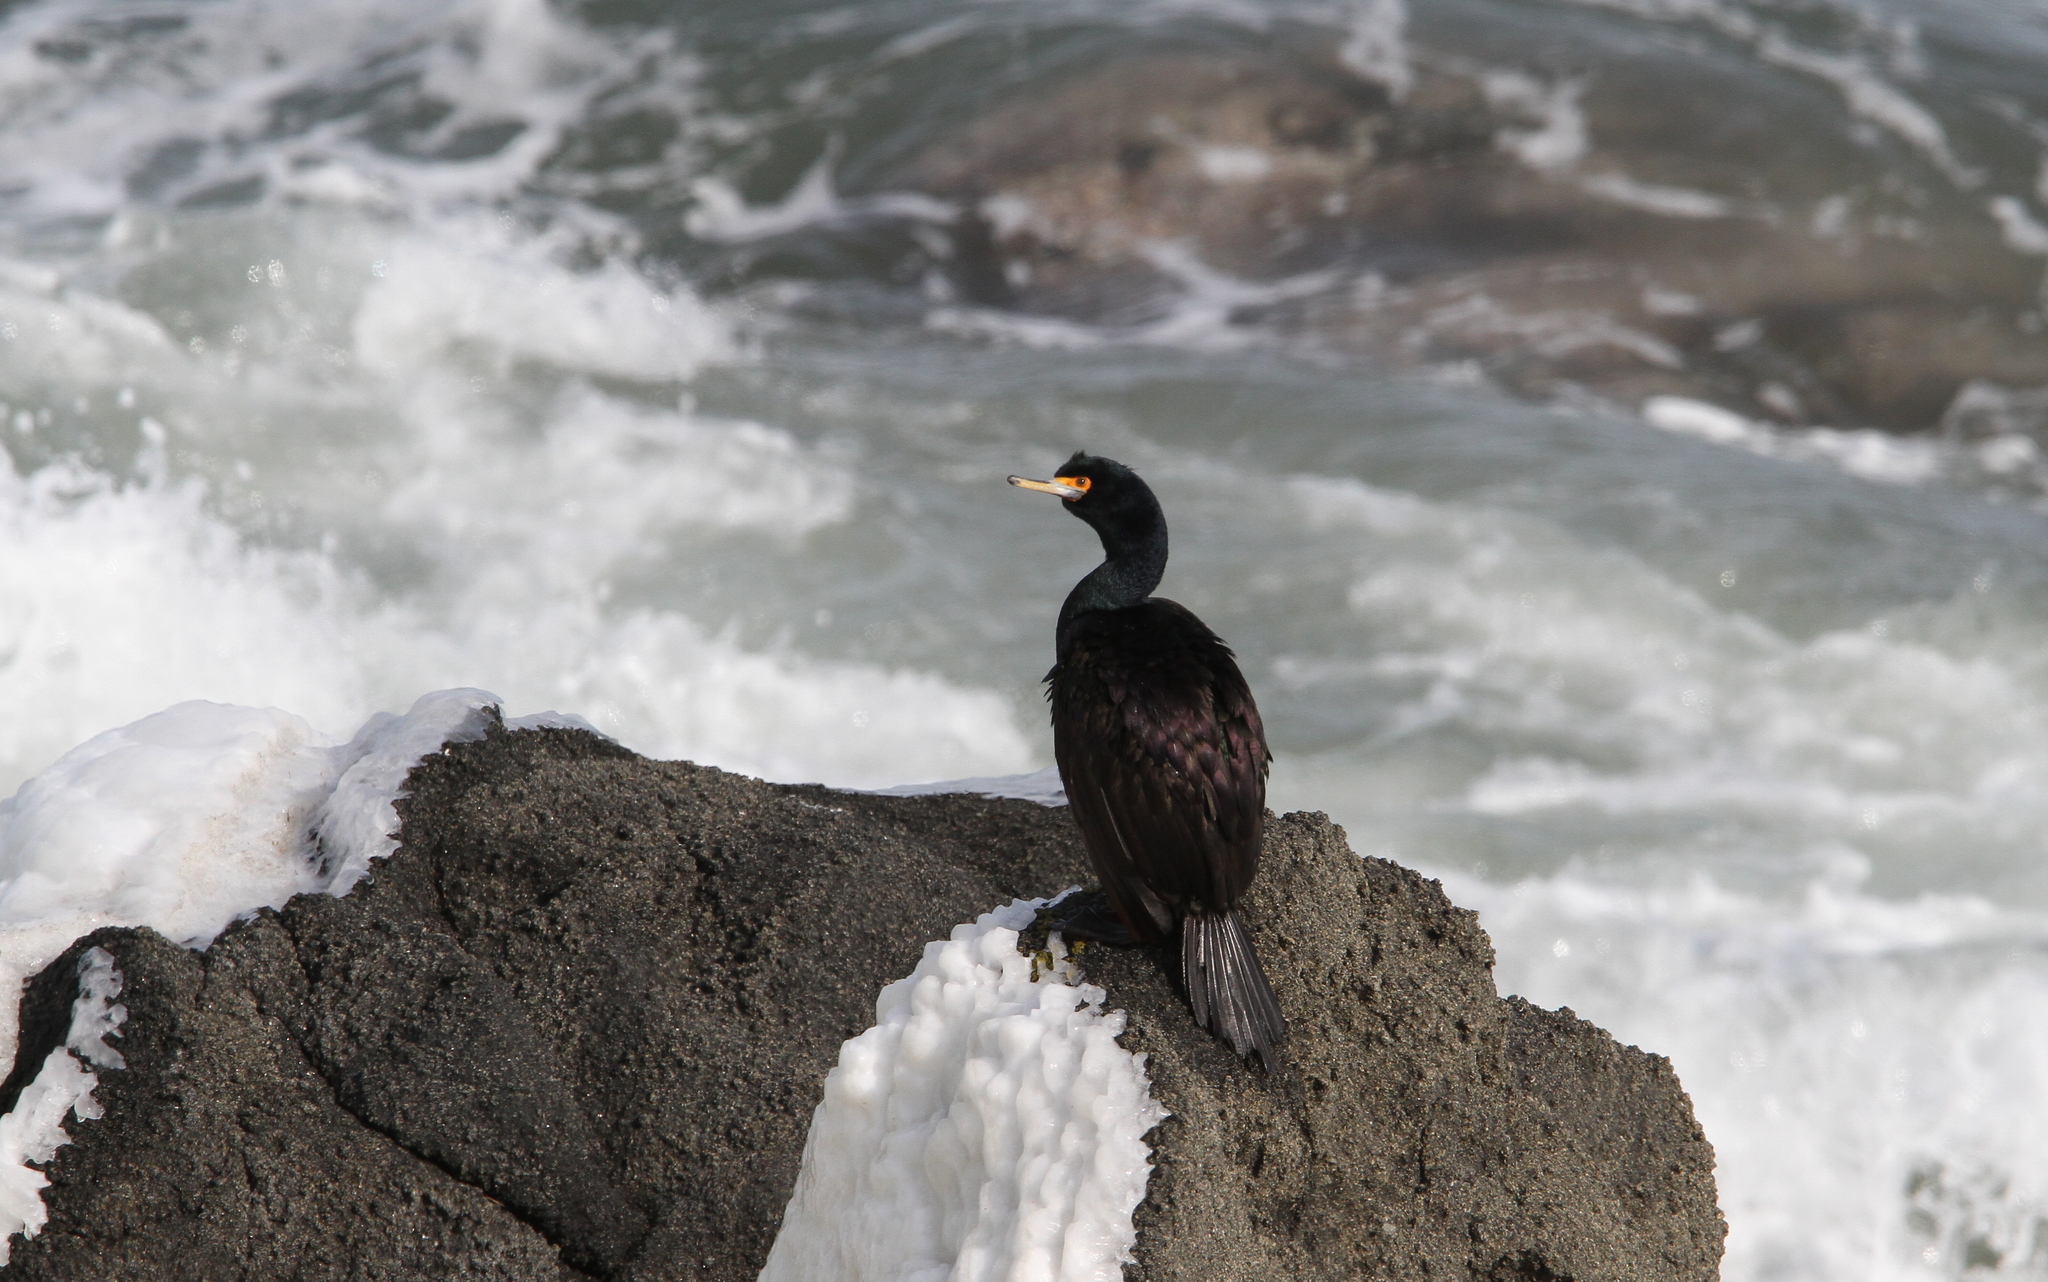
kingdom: Animalia
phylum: Chordata
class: Aves
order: Suliformes
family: Phalacrocoracidae
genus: Phalacrocorax
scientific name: Phalacrocorax urile
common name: Red-faced cormorant
